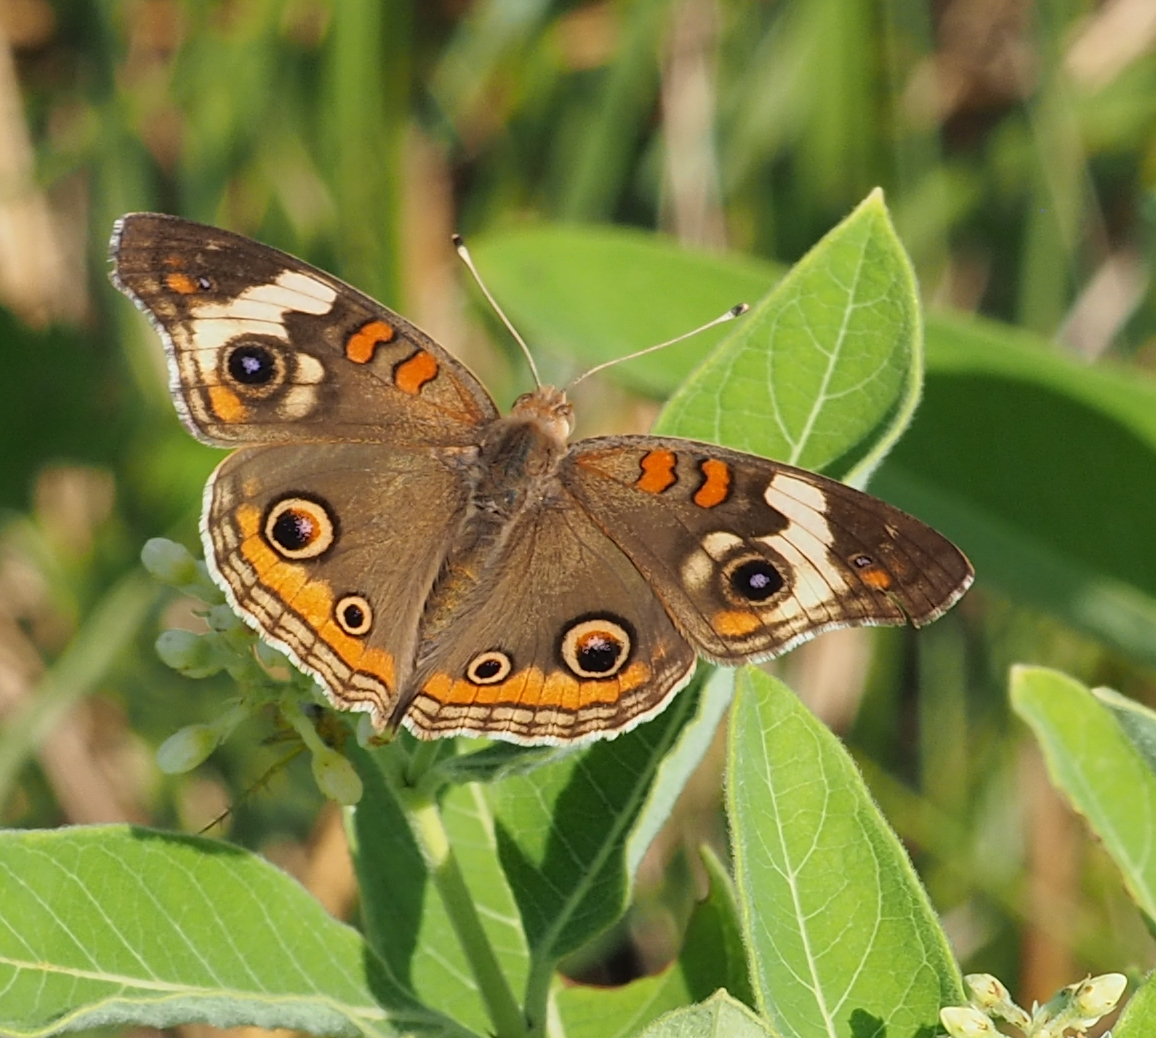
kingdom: Animalia
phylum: Arthropoda
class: Insecta
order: Lepidoptera
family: Nymphalidae
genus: Junonia
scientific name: Junonia coenia
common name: Common buckeye
